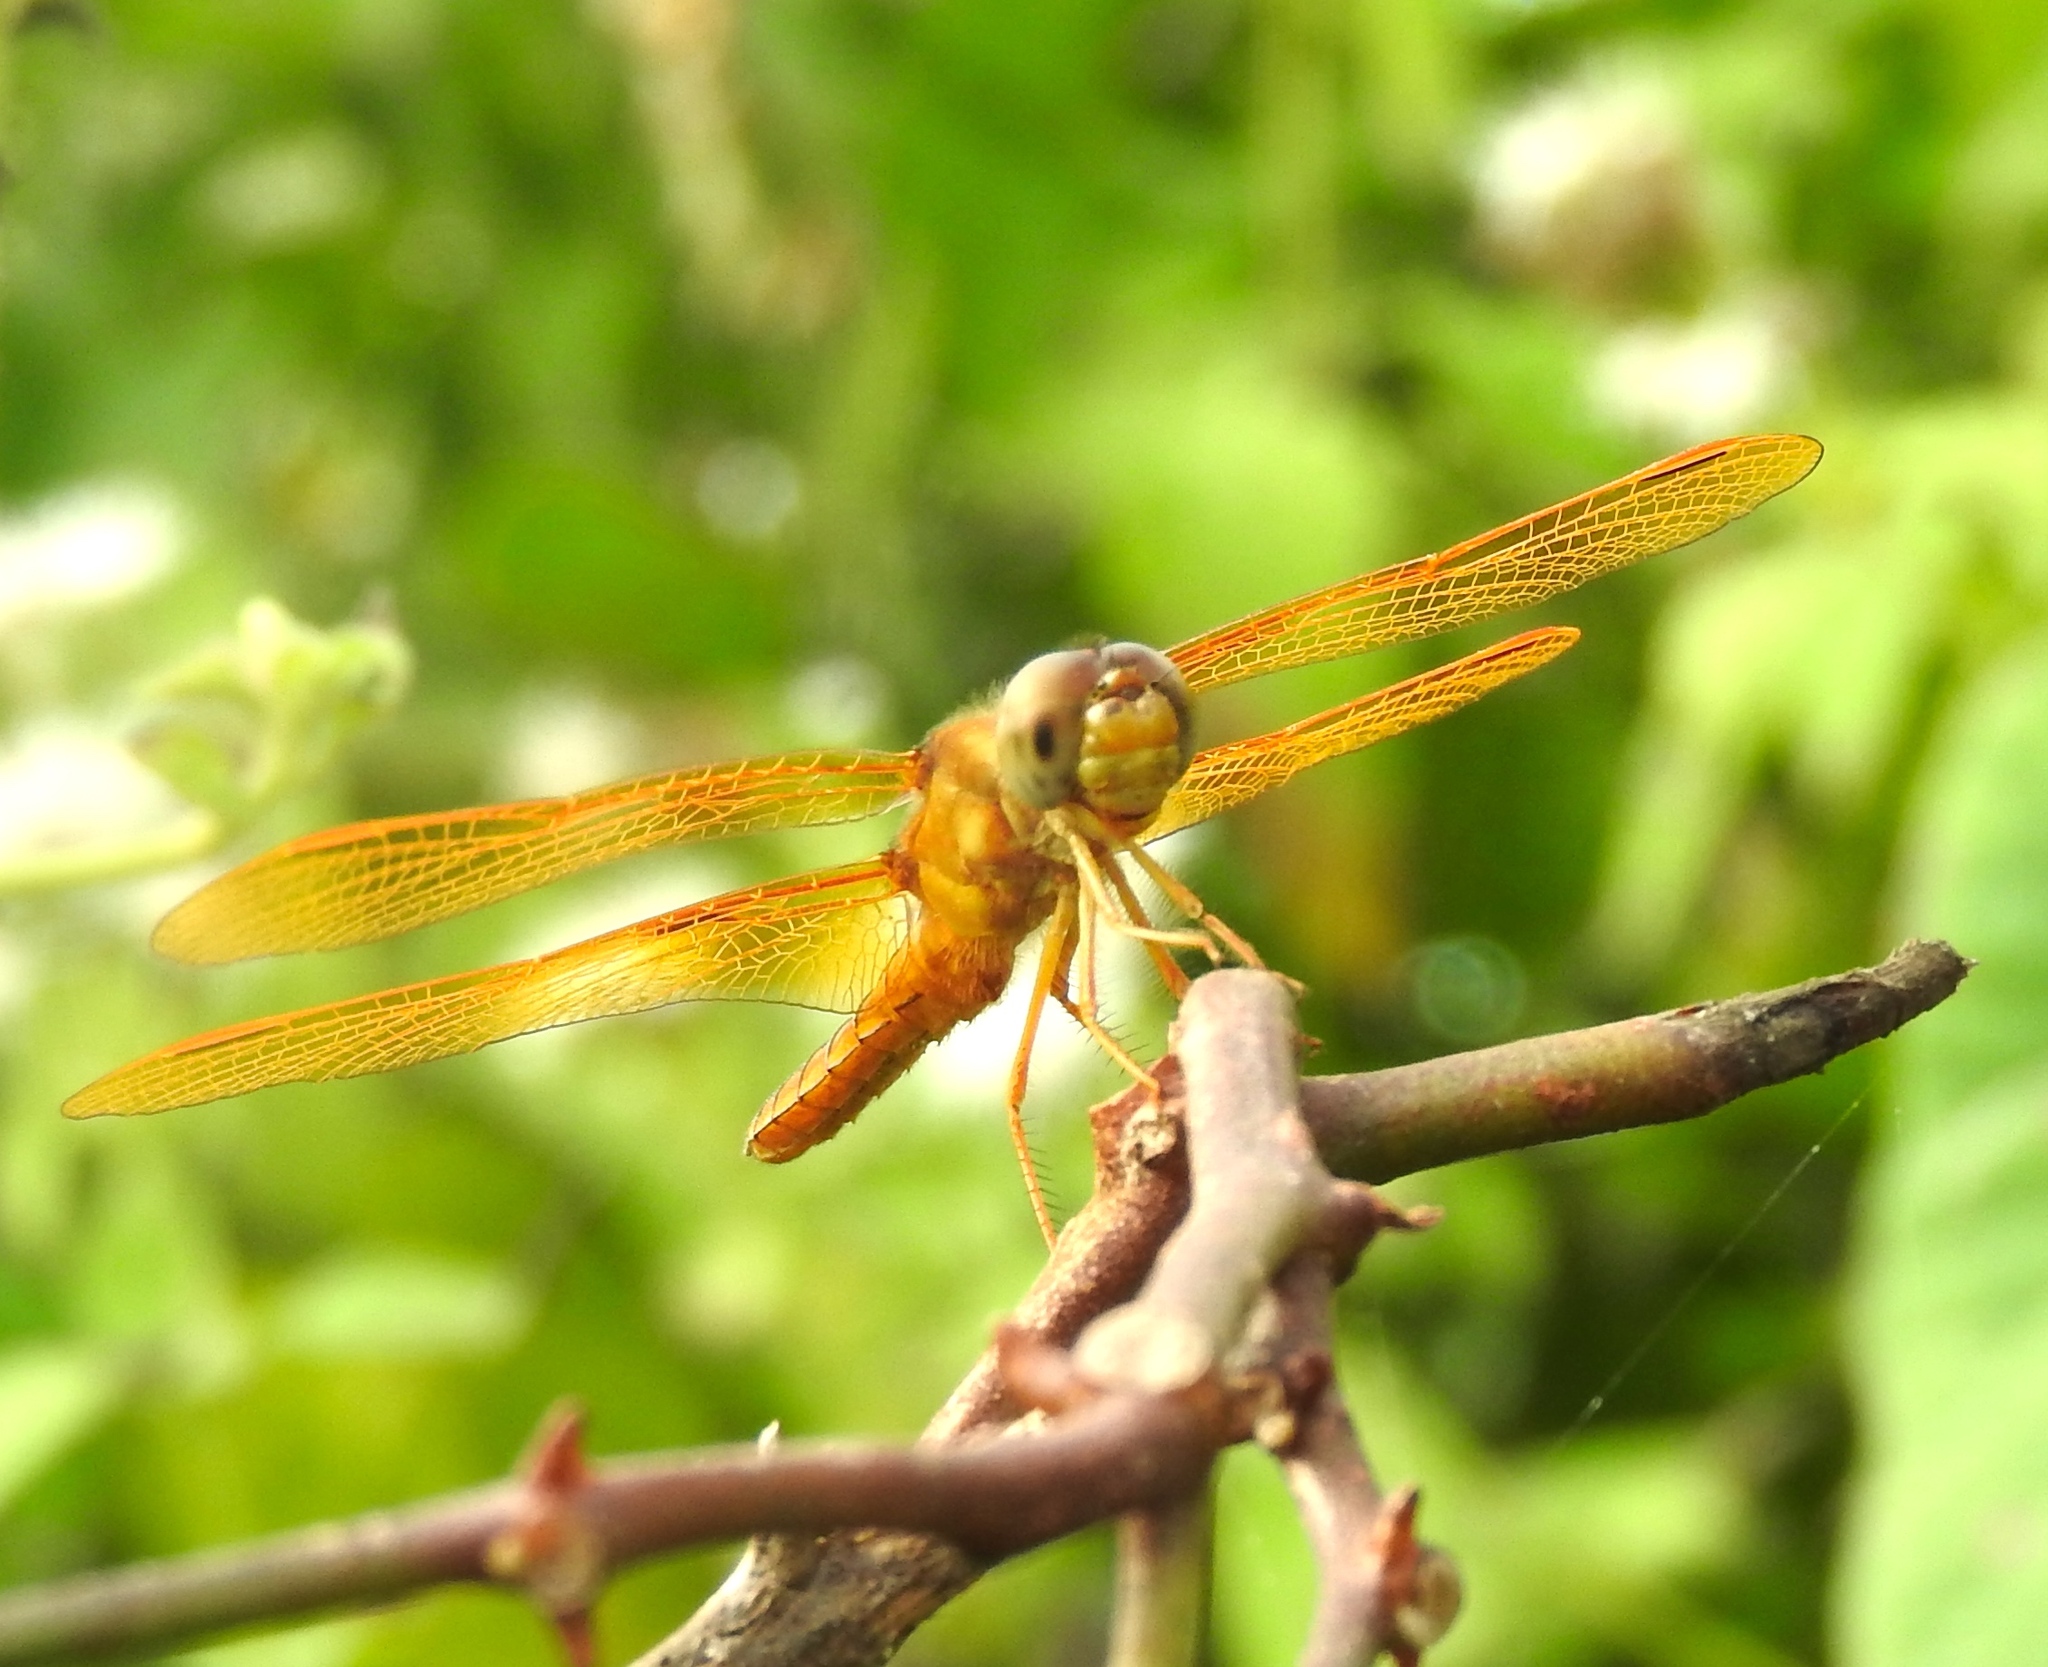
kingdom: Animalia
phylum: Arthropoda
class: Insecta
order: Odonata
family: Libellulidae
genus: Perithemis
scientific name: Perithemis intensa
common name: Mexican amberwing
